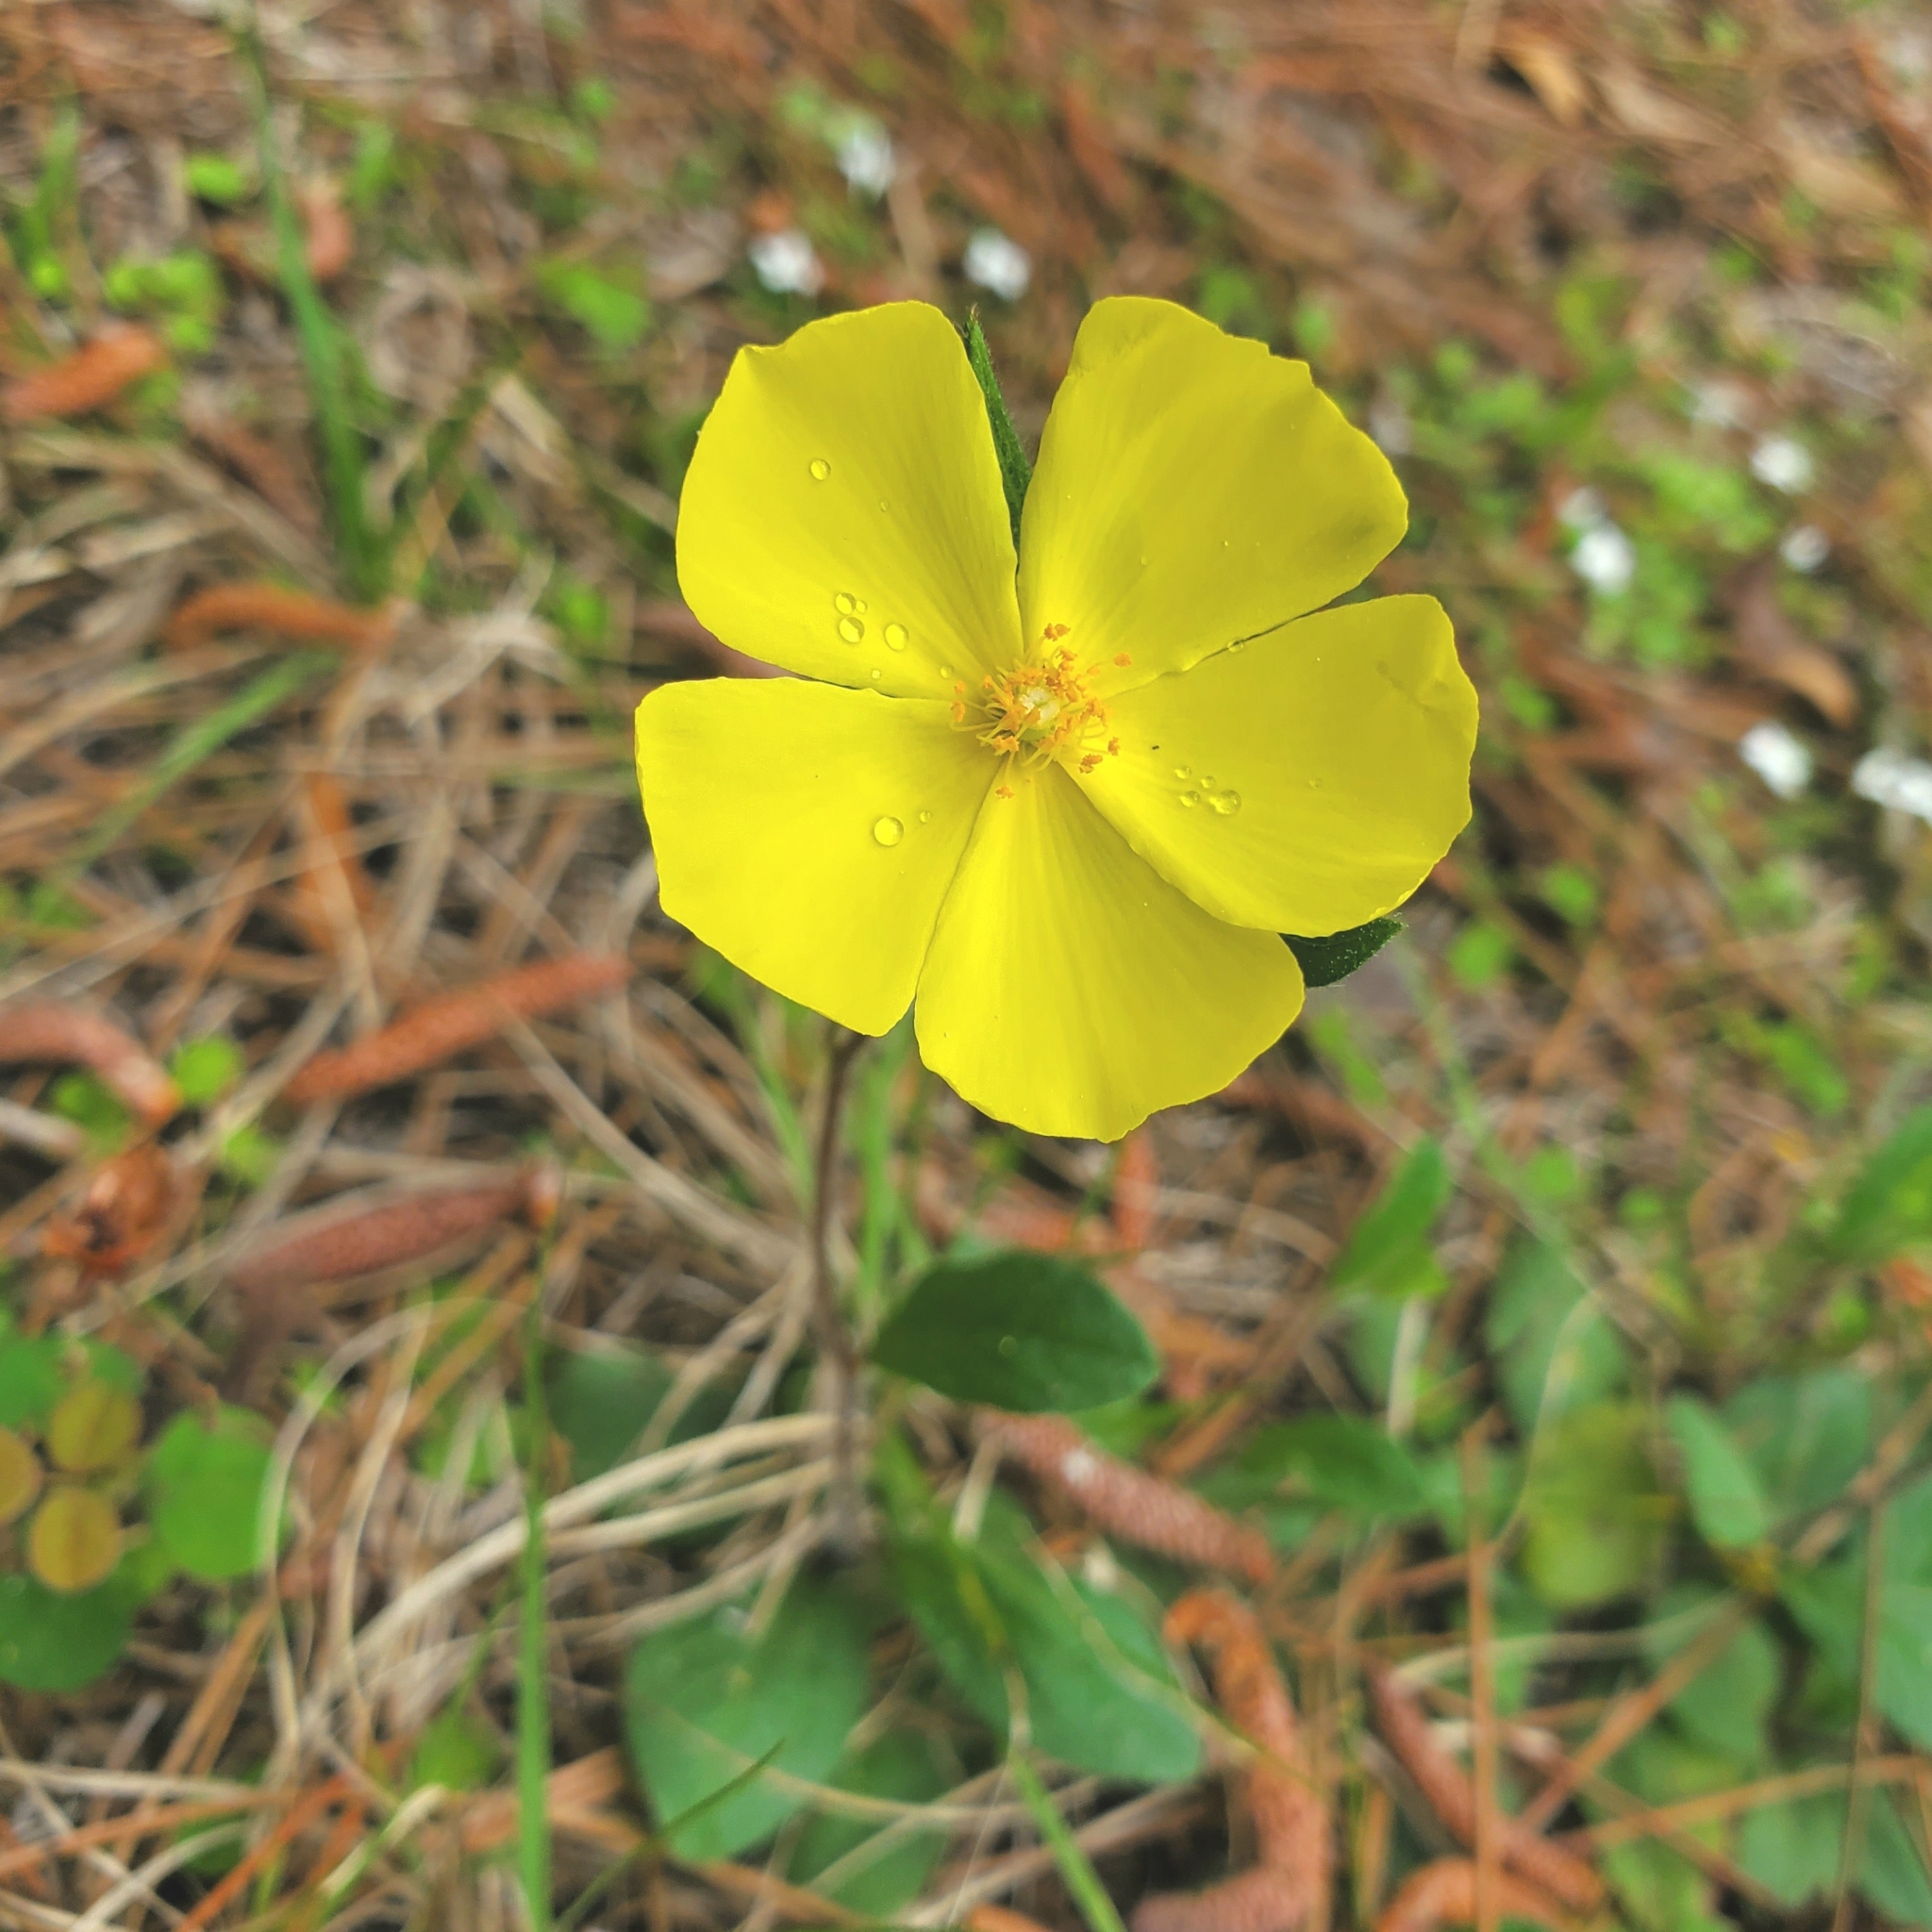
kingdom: Plantae
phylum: Tracheophyta
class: Magnoliopsida
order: Malvales
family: Cistaceae
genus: Crocanthemum
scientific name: Crocanthemum carolinianum
